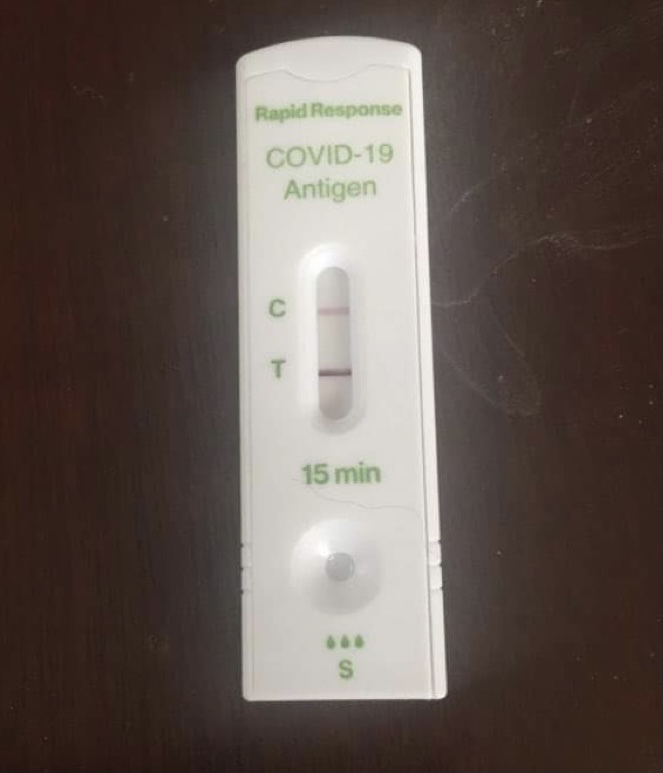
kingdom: Viruses
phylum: Pisuviricota
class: Pisoniviricetes
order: Nidovirales
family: Coronaviridae
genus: Betacoronavirus
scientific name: Betacoronavirus
